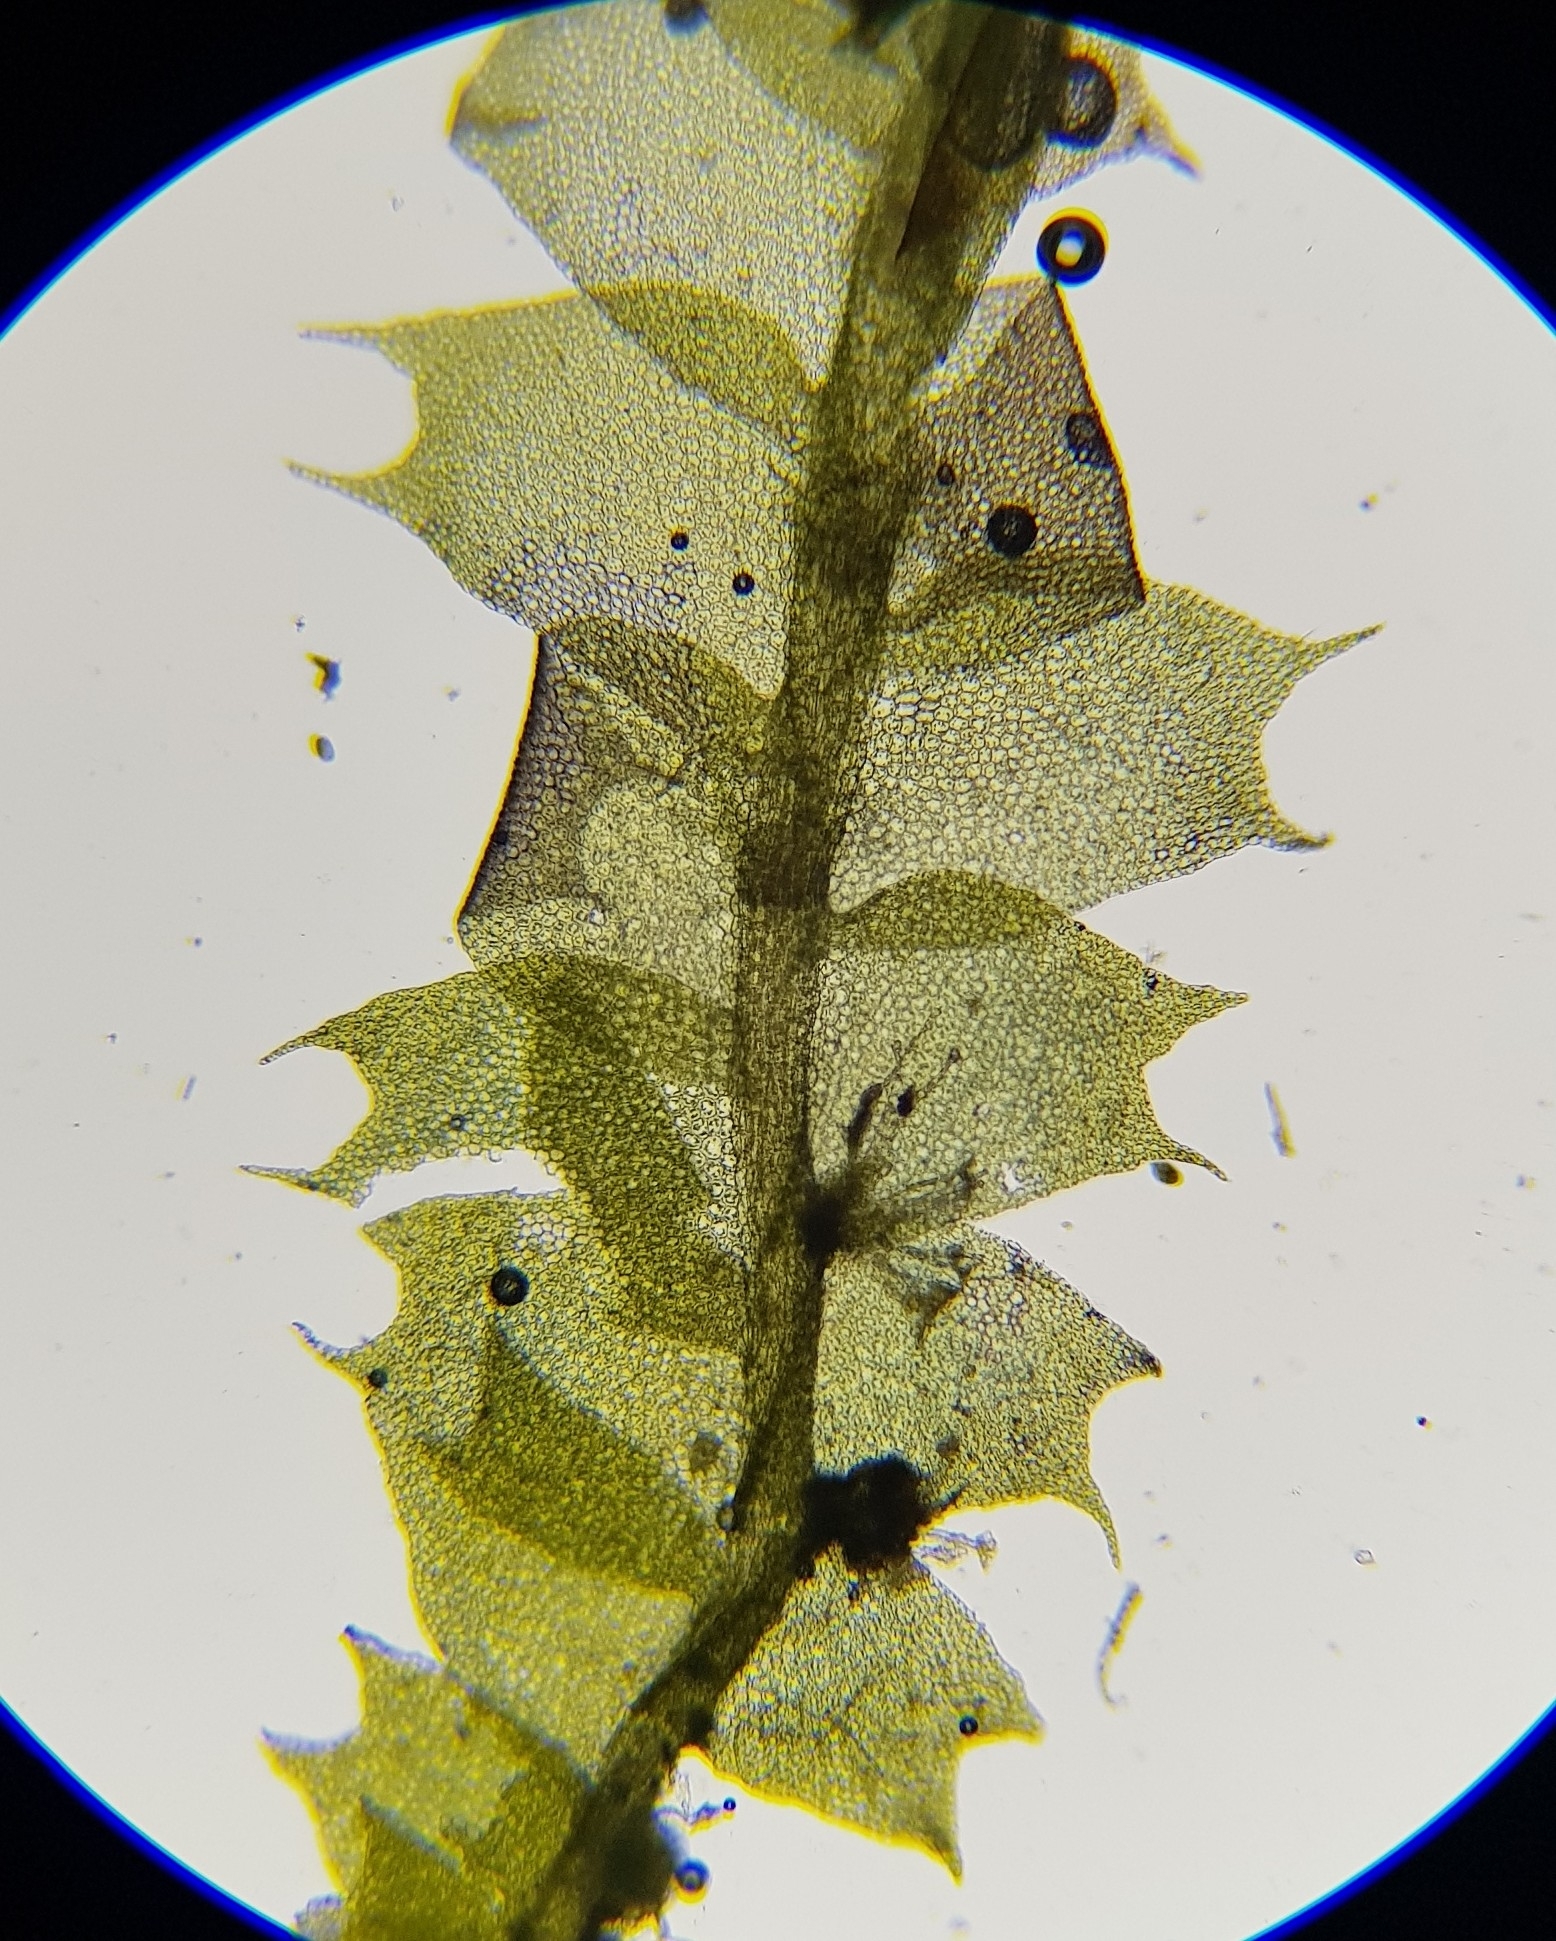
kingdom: Plantae
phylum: Marchantiophyta
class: Jungermanniopsida
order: Jungermanniales
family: Lophocoleaceae
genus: Lophocolea
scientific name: Lophocolea bidentata
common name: Bifid crestwort
